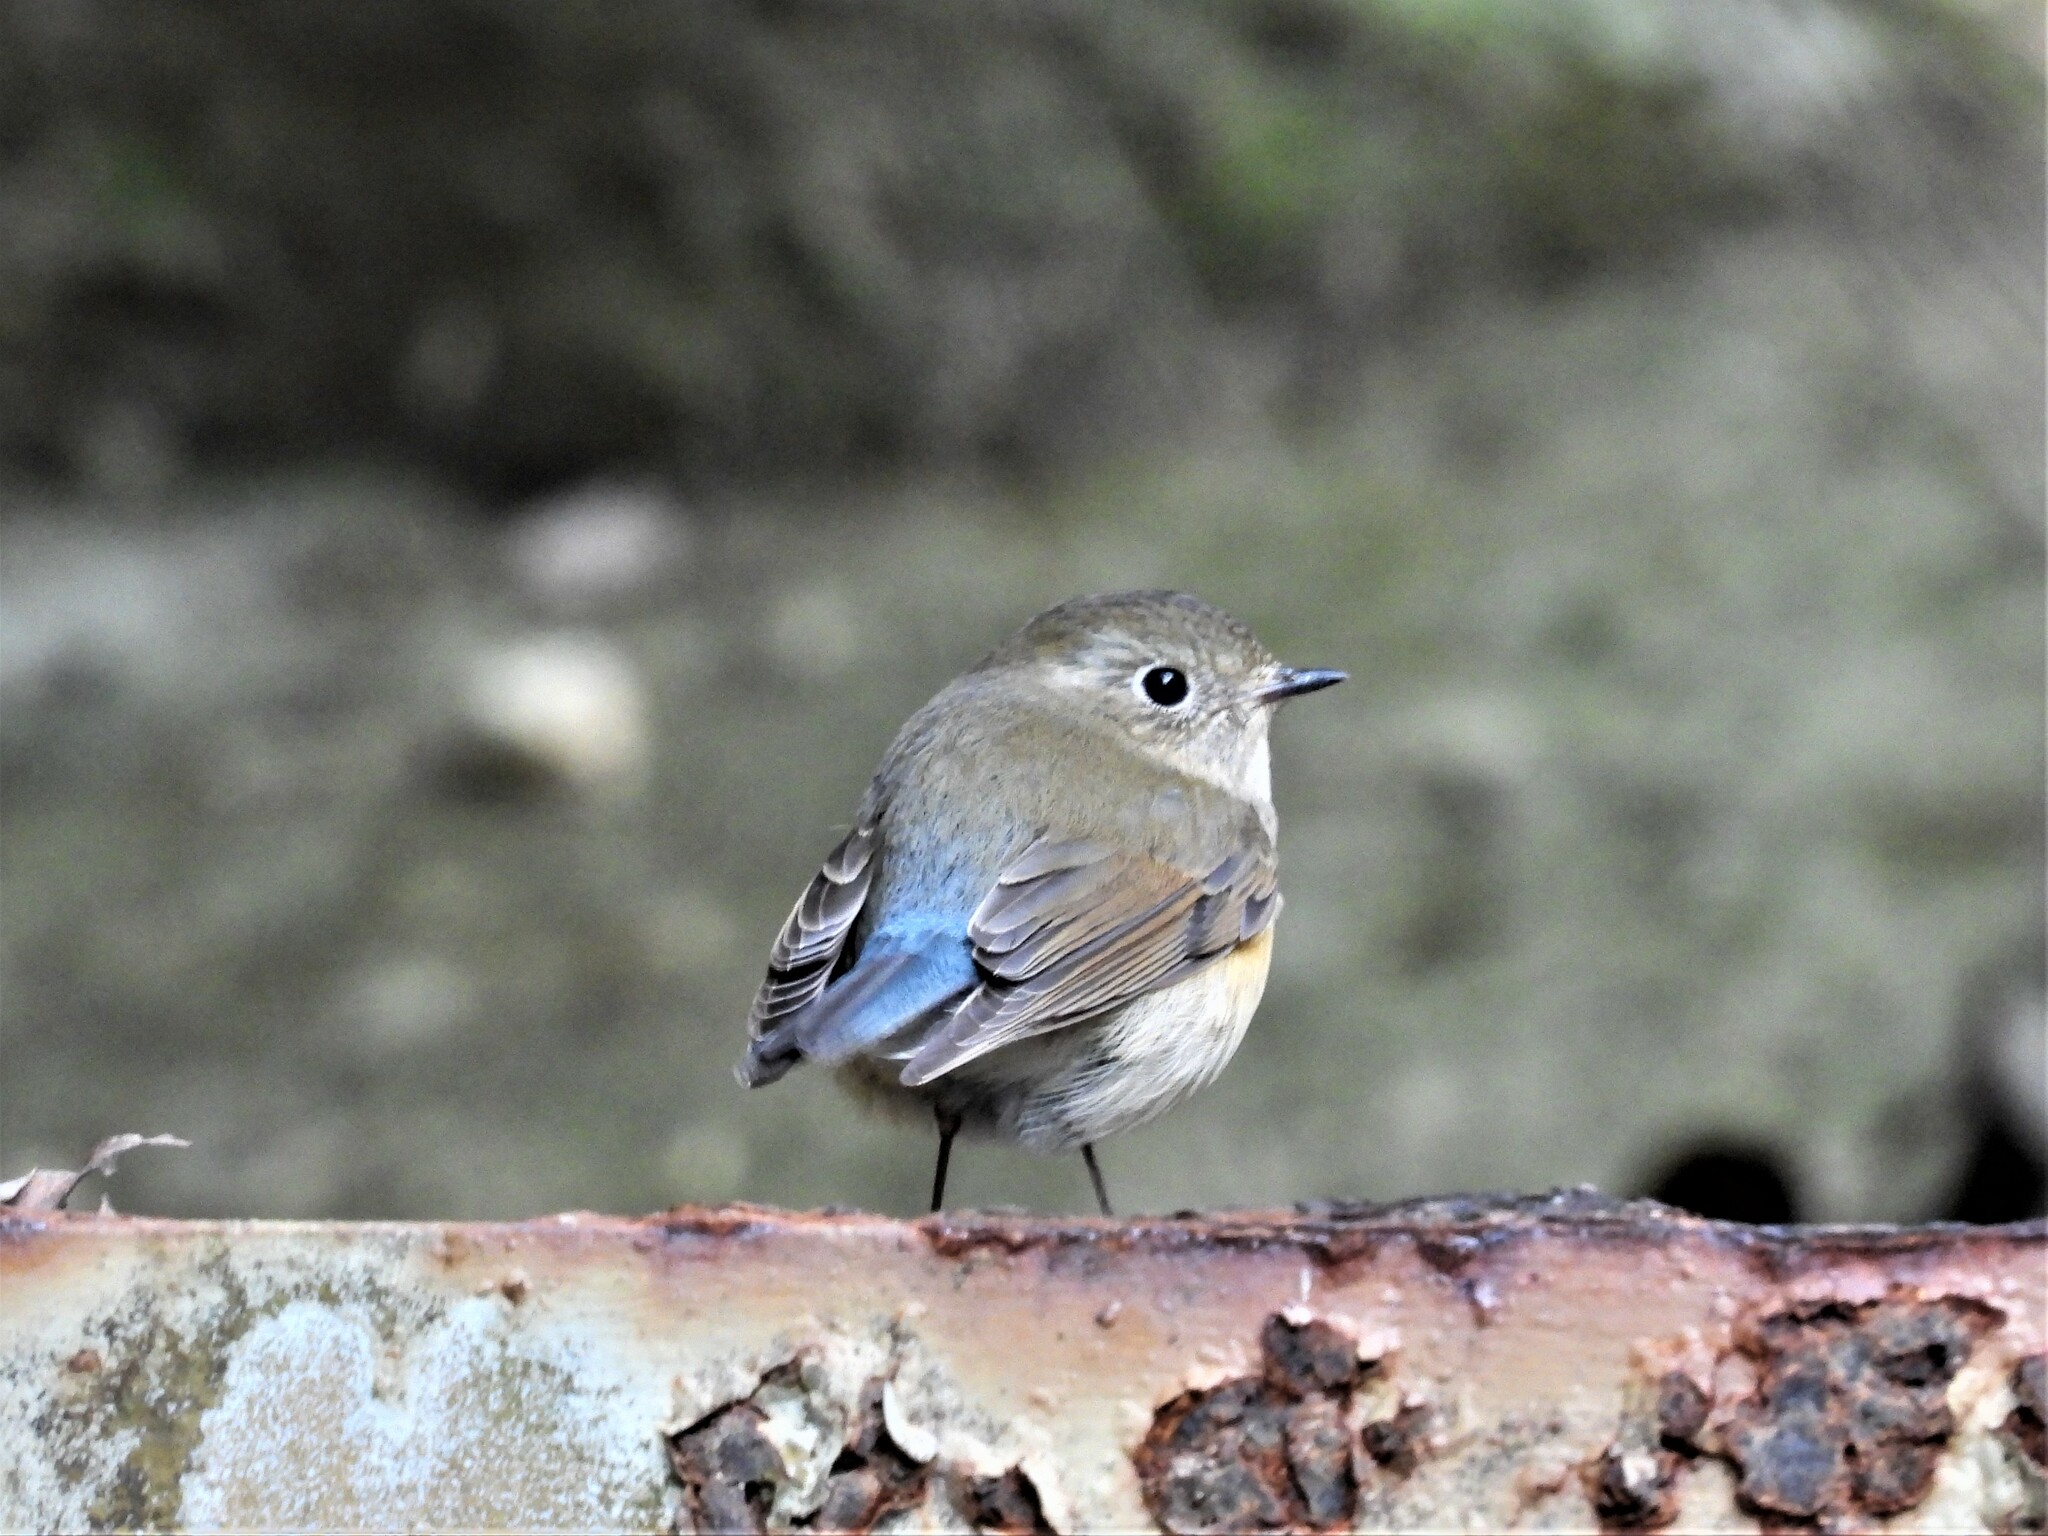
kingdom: Animalia
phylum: Chordata
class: Aves
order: Passeriformes
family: Muscicapidae
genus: Tarsiger
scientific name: Tarsiger cyanurus
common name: Red-flanked bluetail
